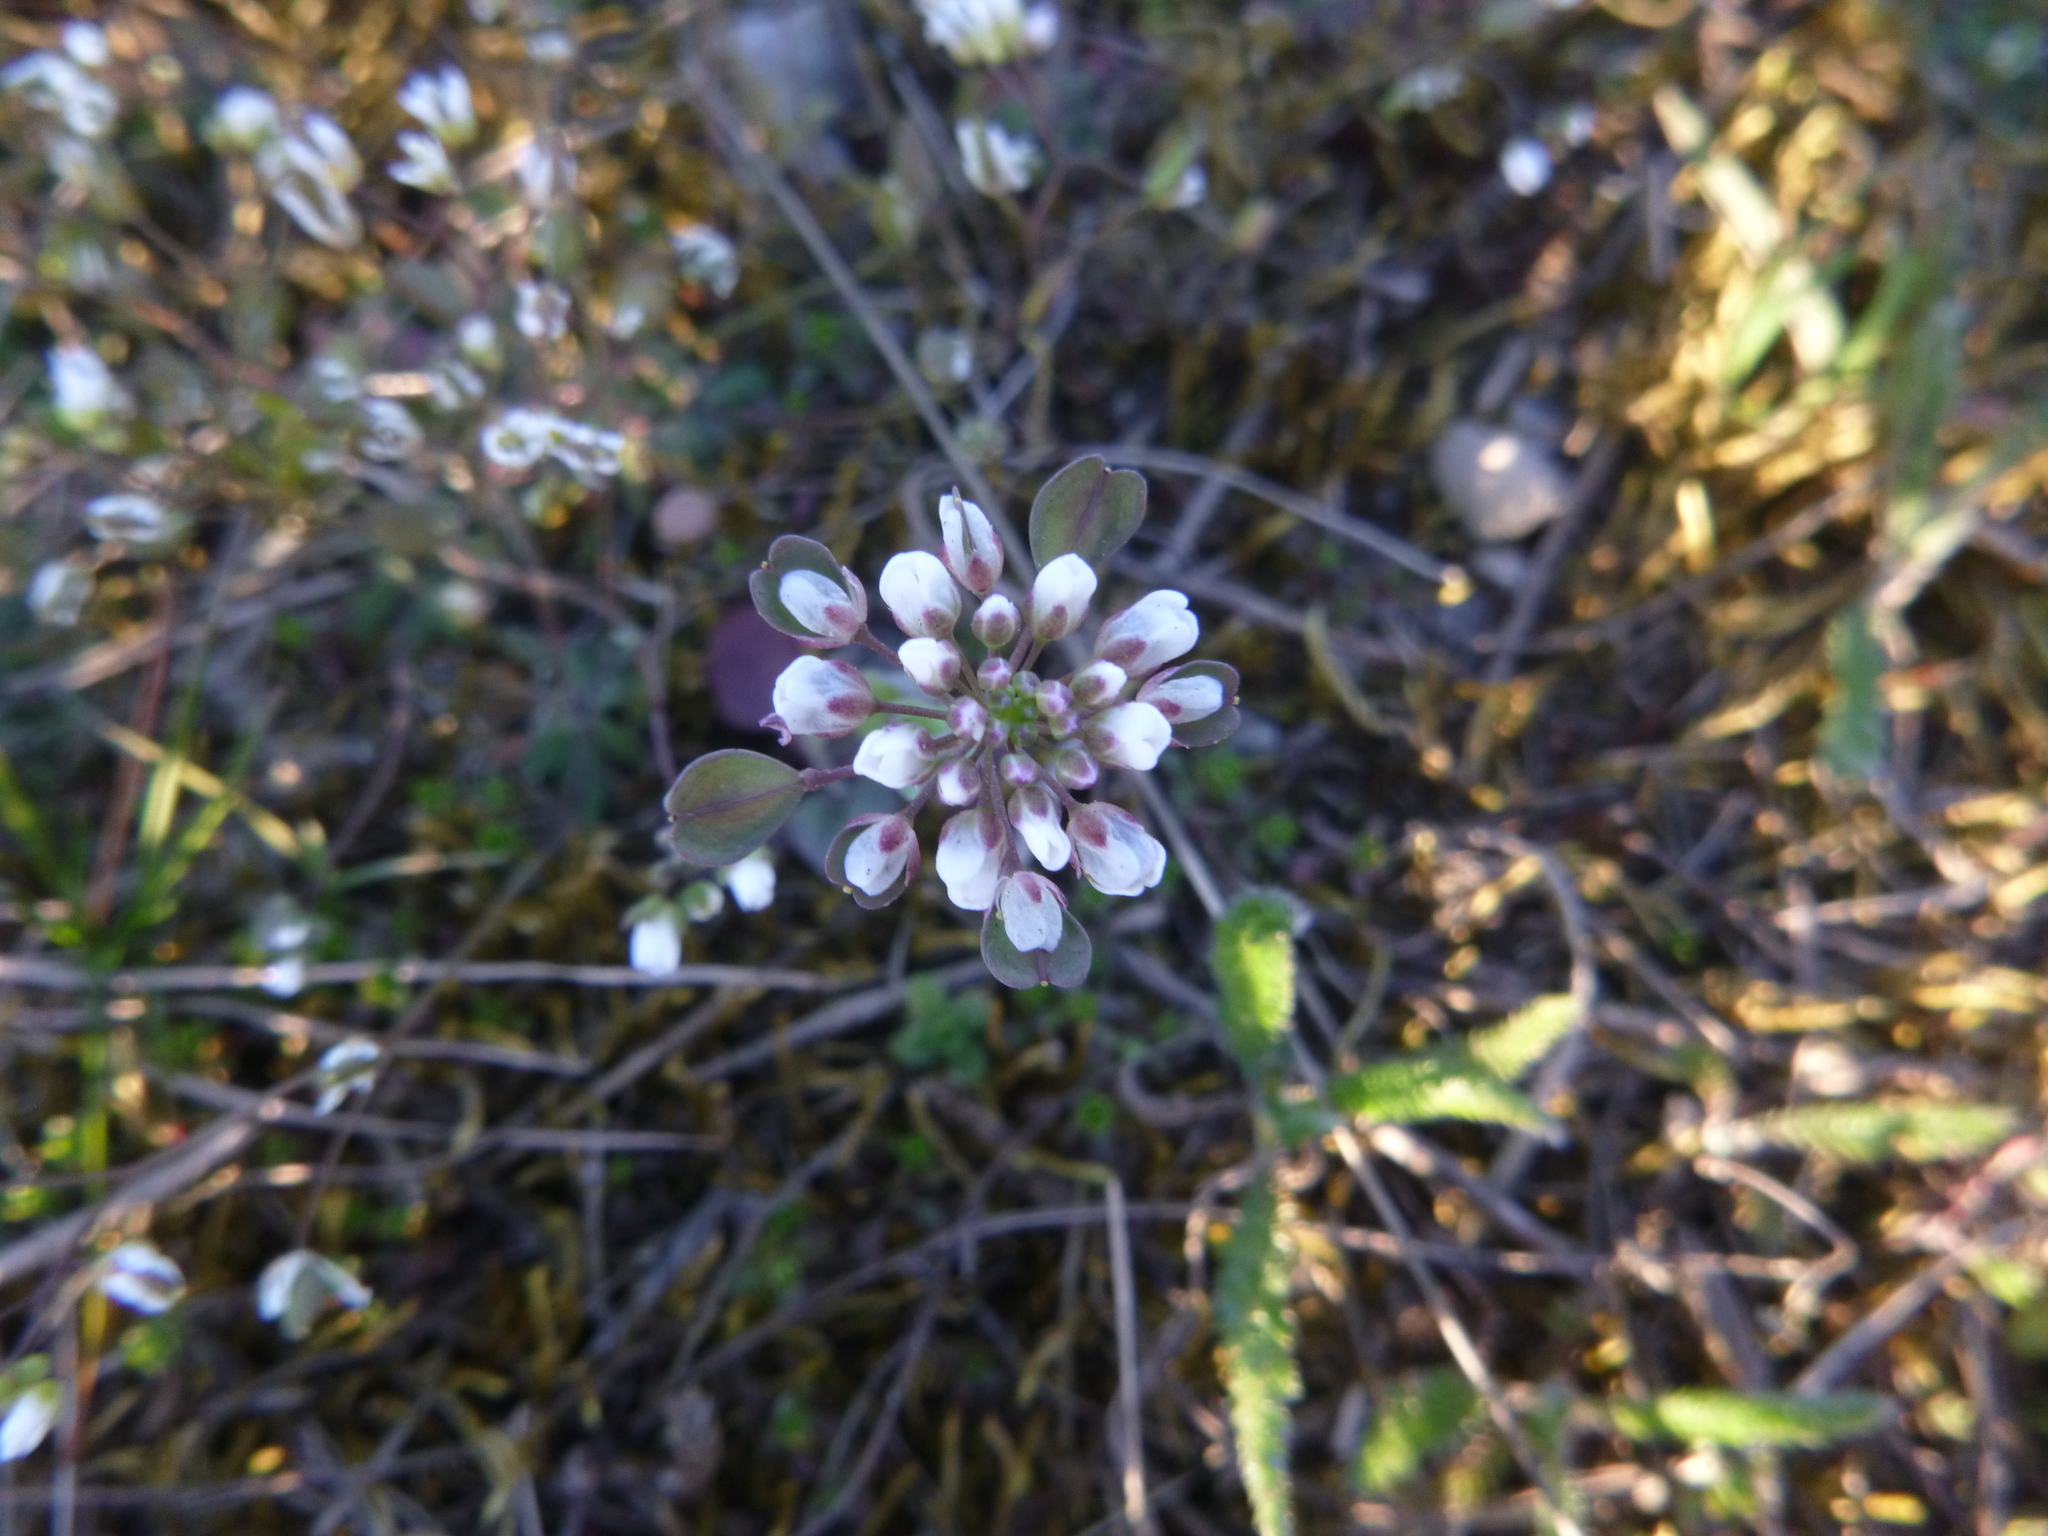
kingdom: Plantae
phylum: Tracheophyta
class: Magnoliopsida
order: Brassicales
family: Brassicaceae
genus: Noccaea
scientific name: Noccaea perfoliata
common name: Perfoliate pennycress
